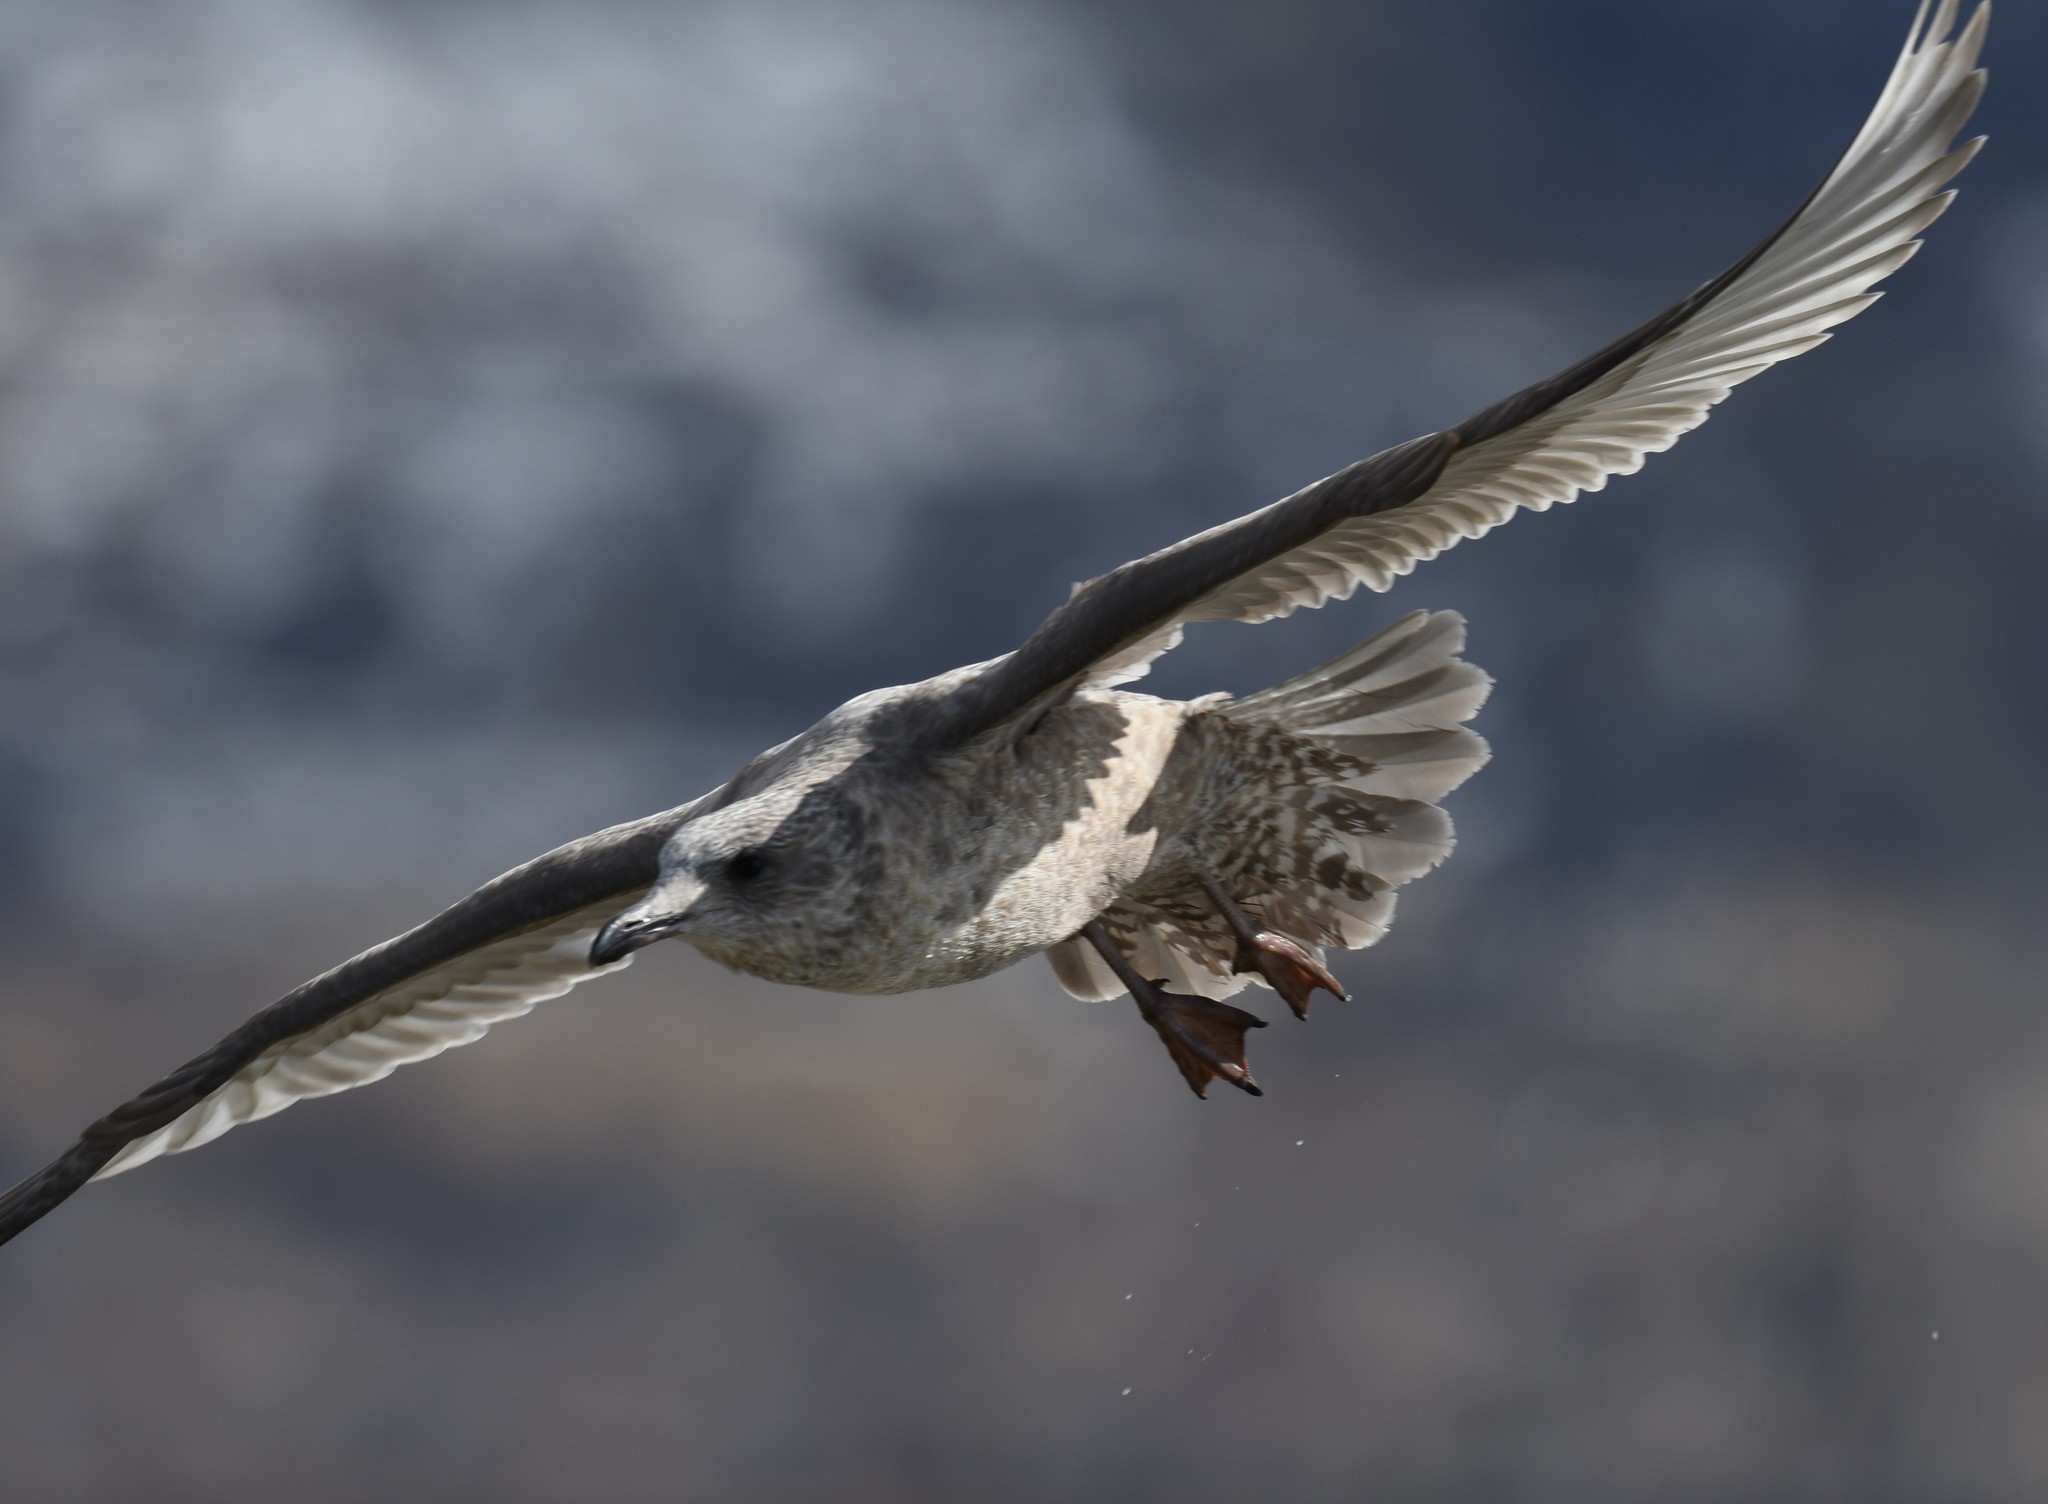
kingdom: Animalia
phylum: Chordata
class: Aves
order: Charadriiformes
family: Laridae
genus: Larus
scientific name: Larus glaucoides
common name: Iceland gull
